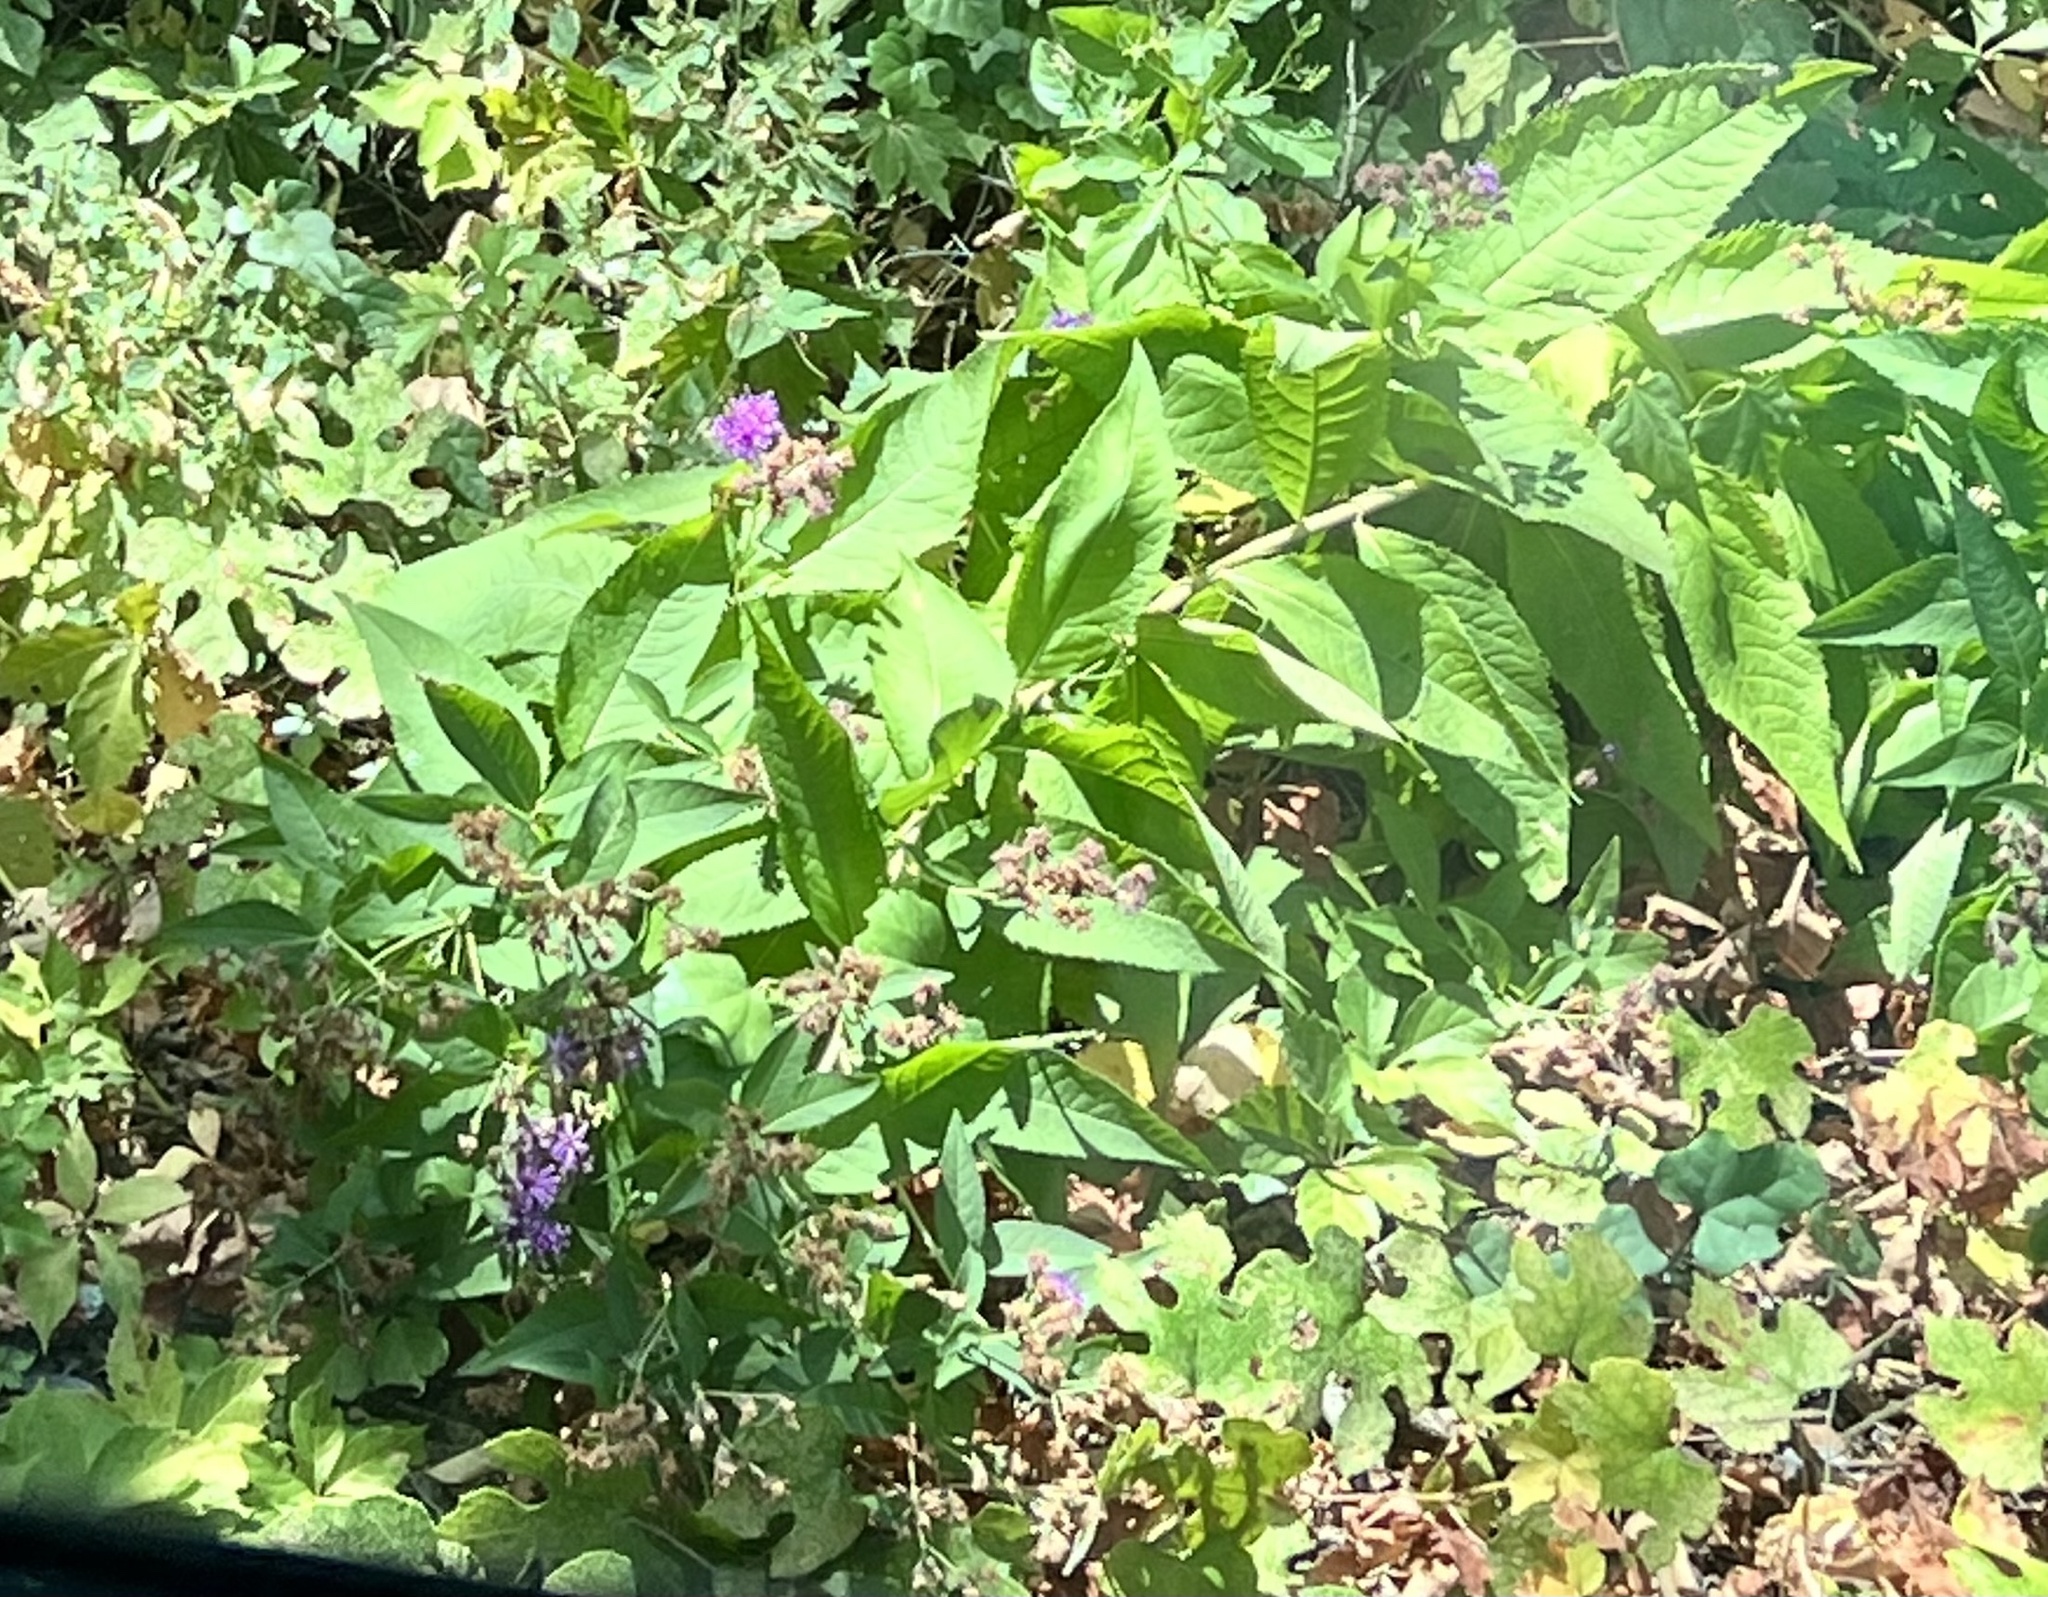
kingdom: Plantae
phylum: Tracheophyta
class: Magnoliopsida
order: Asterales
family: Asteraceae
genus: Vernonia
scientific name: Vernonia baldwinii
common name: Western ironweed
